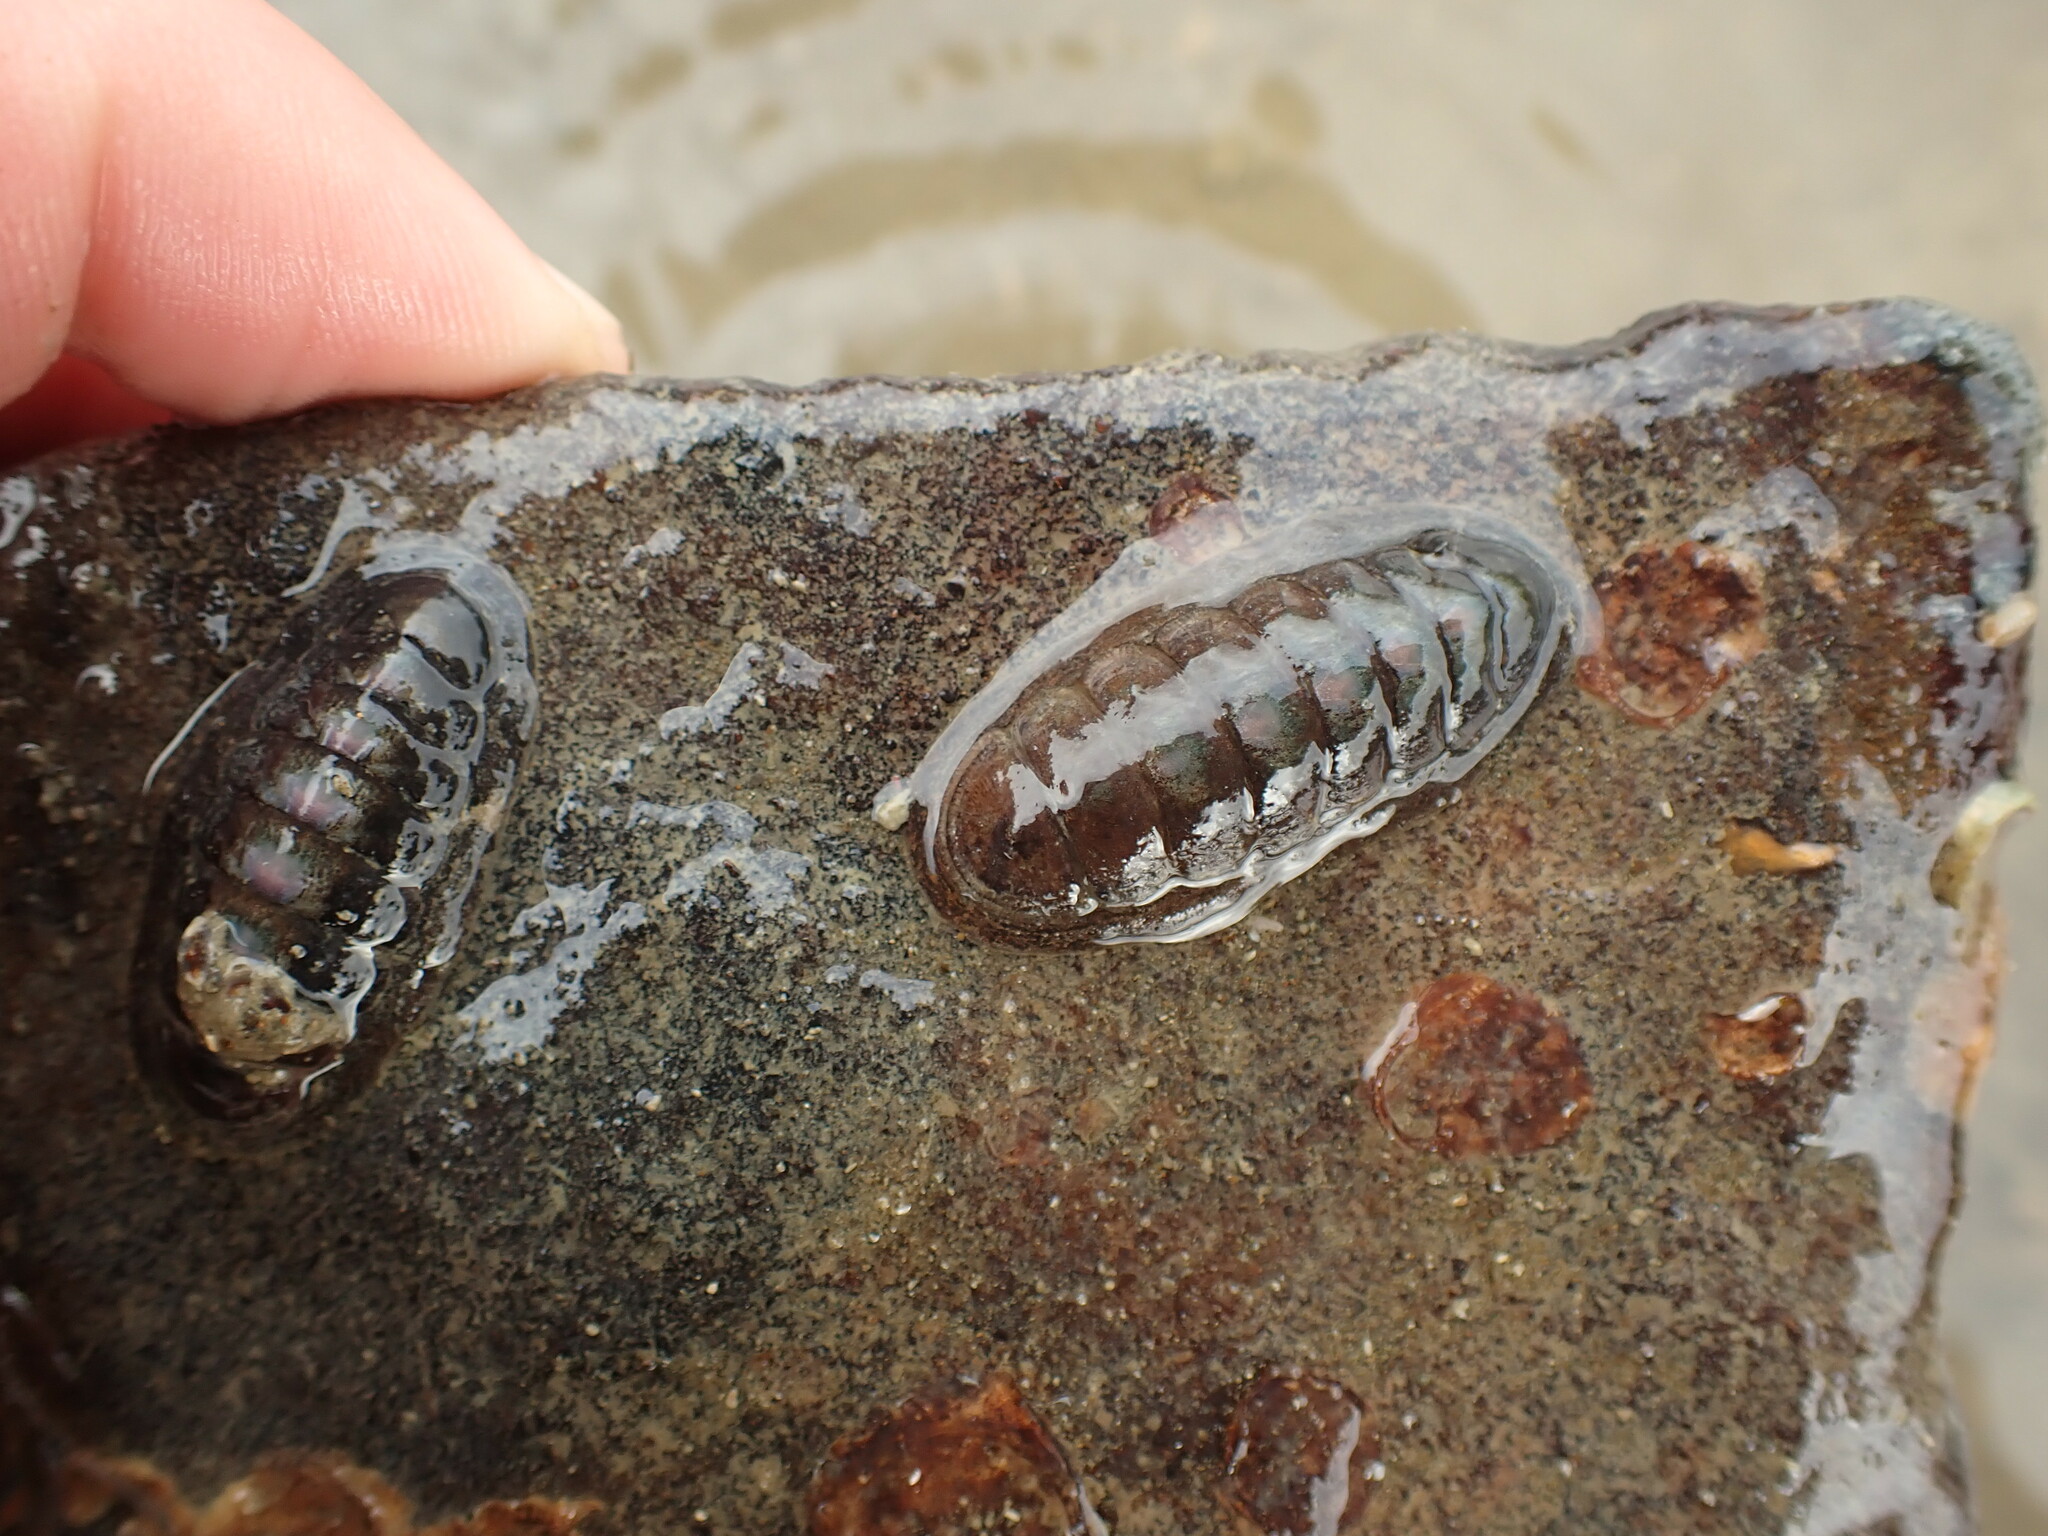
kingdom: Animalia
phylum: Mollusca
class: Polyplacophora
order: Chitonida
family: Ischnochitonidae
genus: Ischnochiton
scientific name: Ischnochiton maorianus
